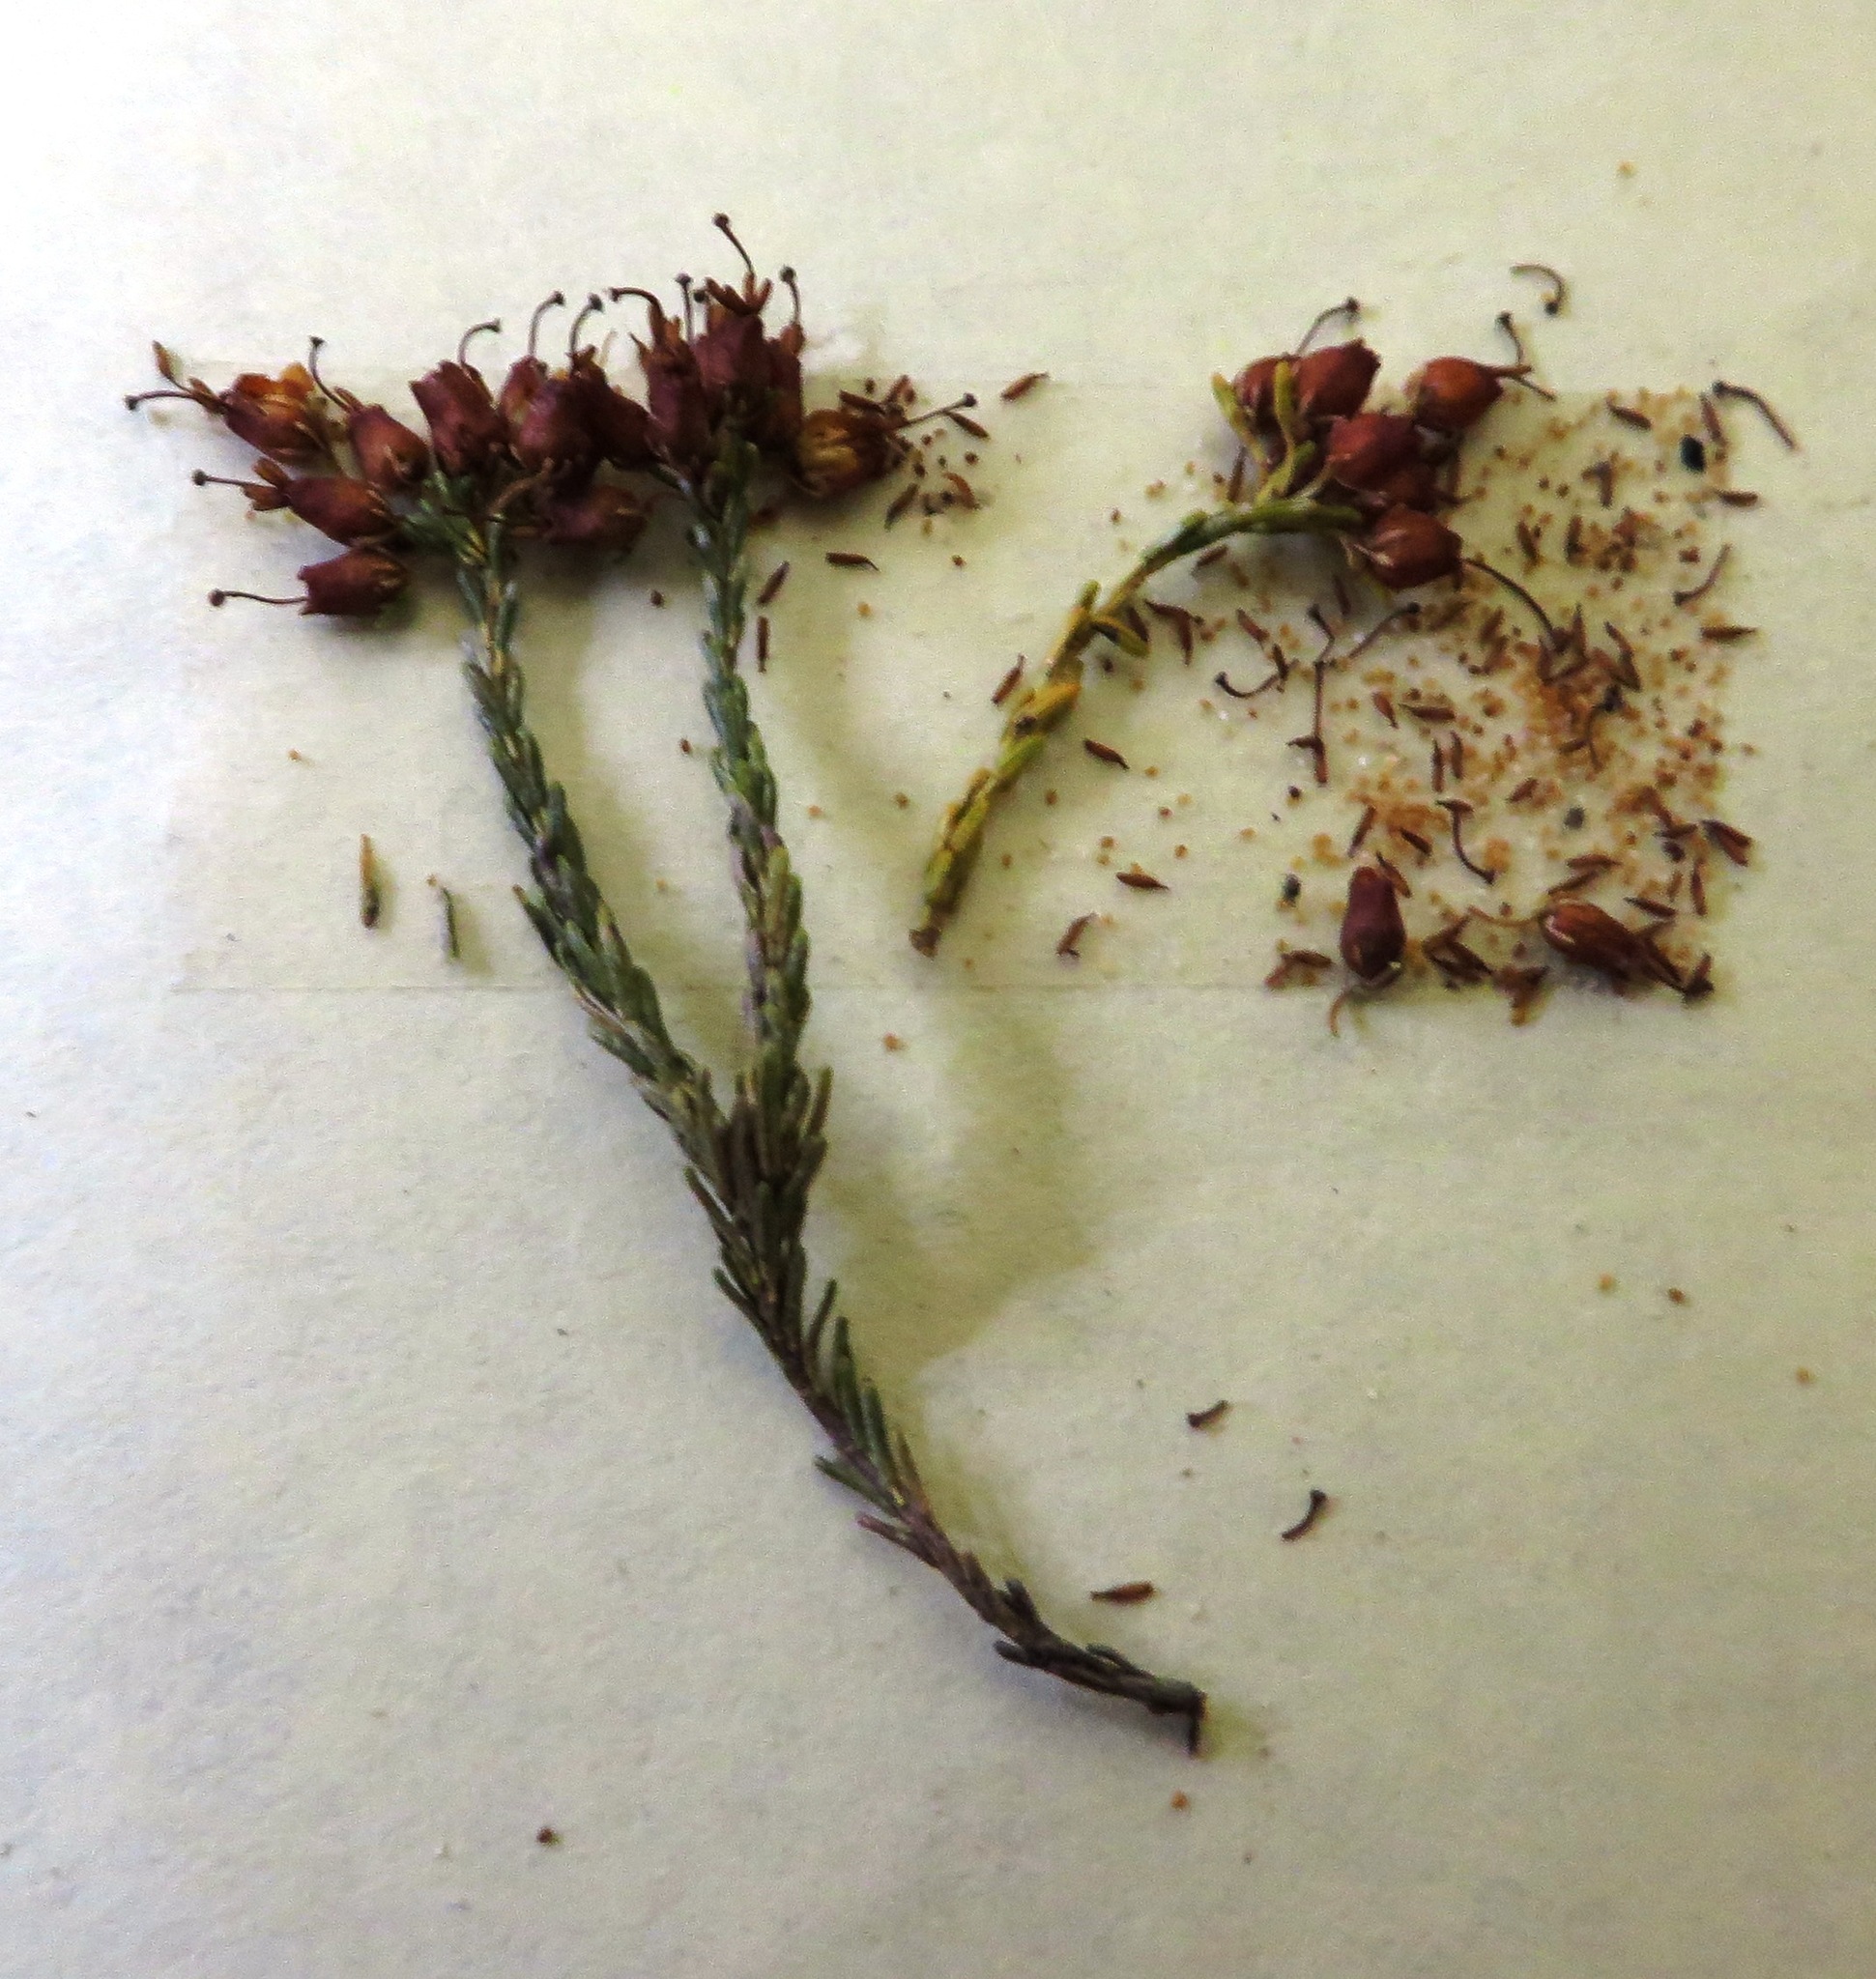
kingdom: Plantae
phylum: Tracheophyta
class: Magnoliopsida
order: Ericales
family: Ericaceae
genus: Erica
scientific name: Erica ustulescens
